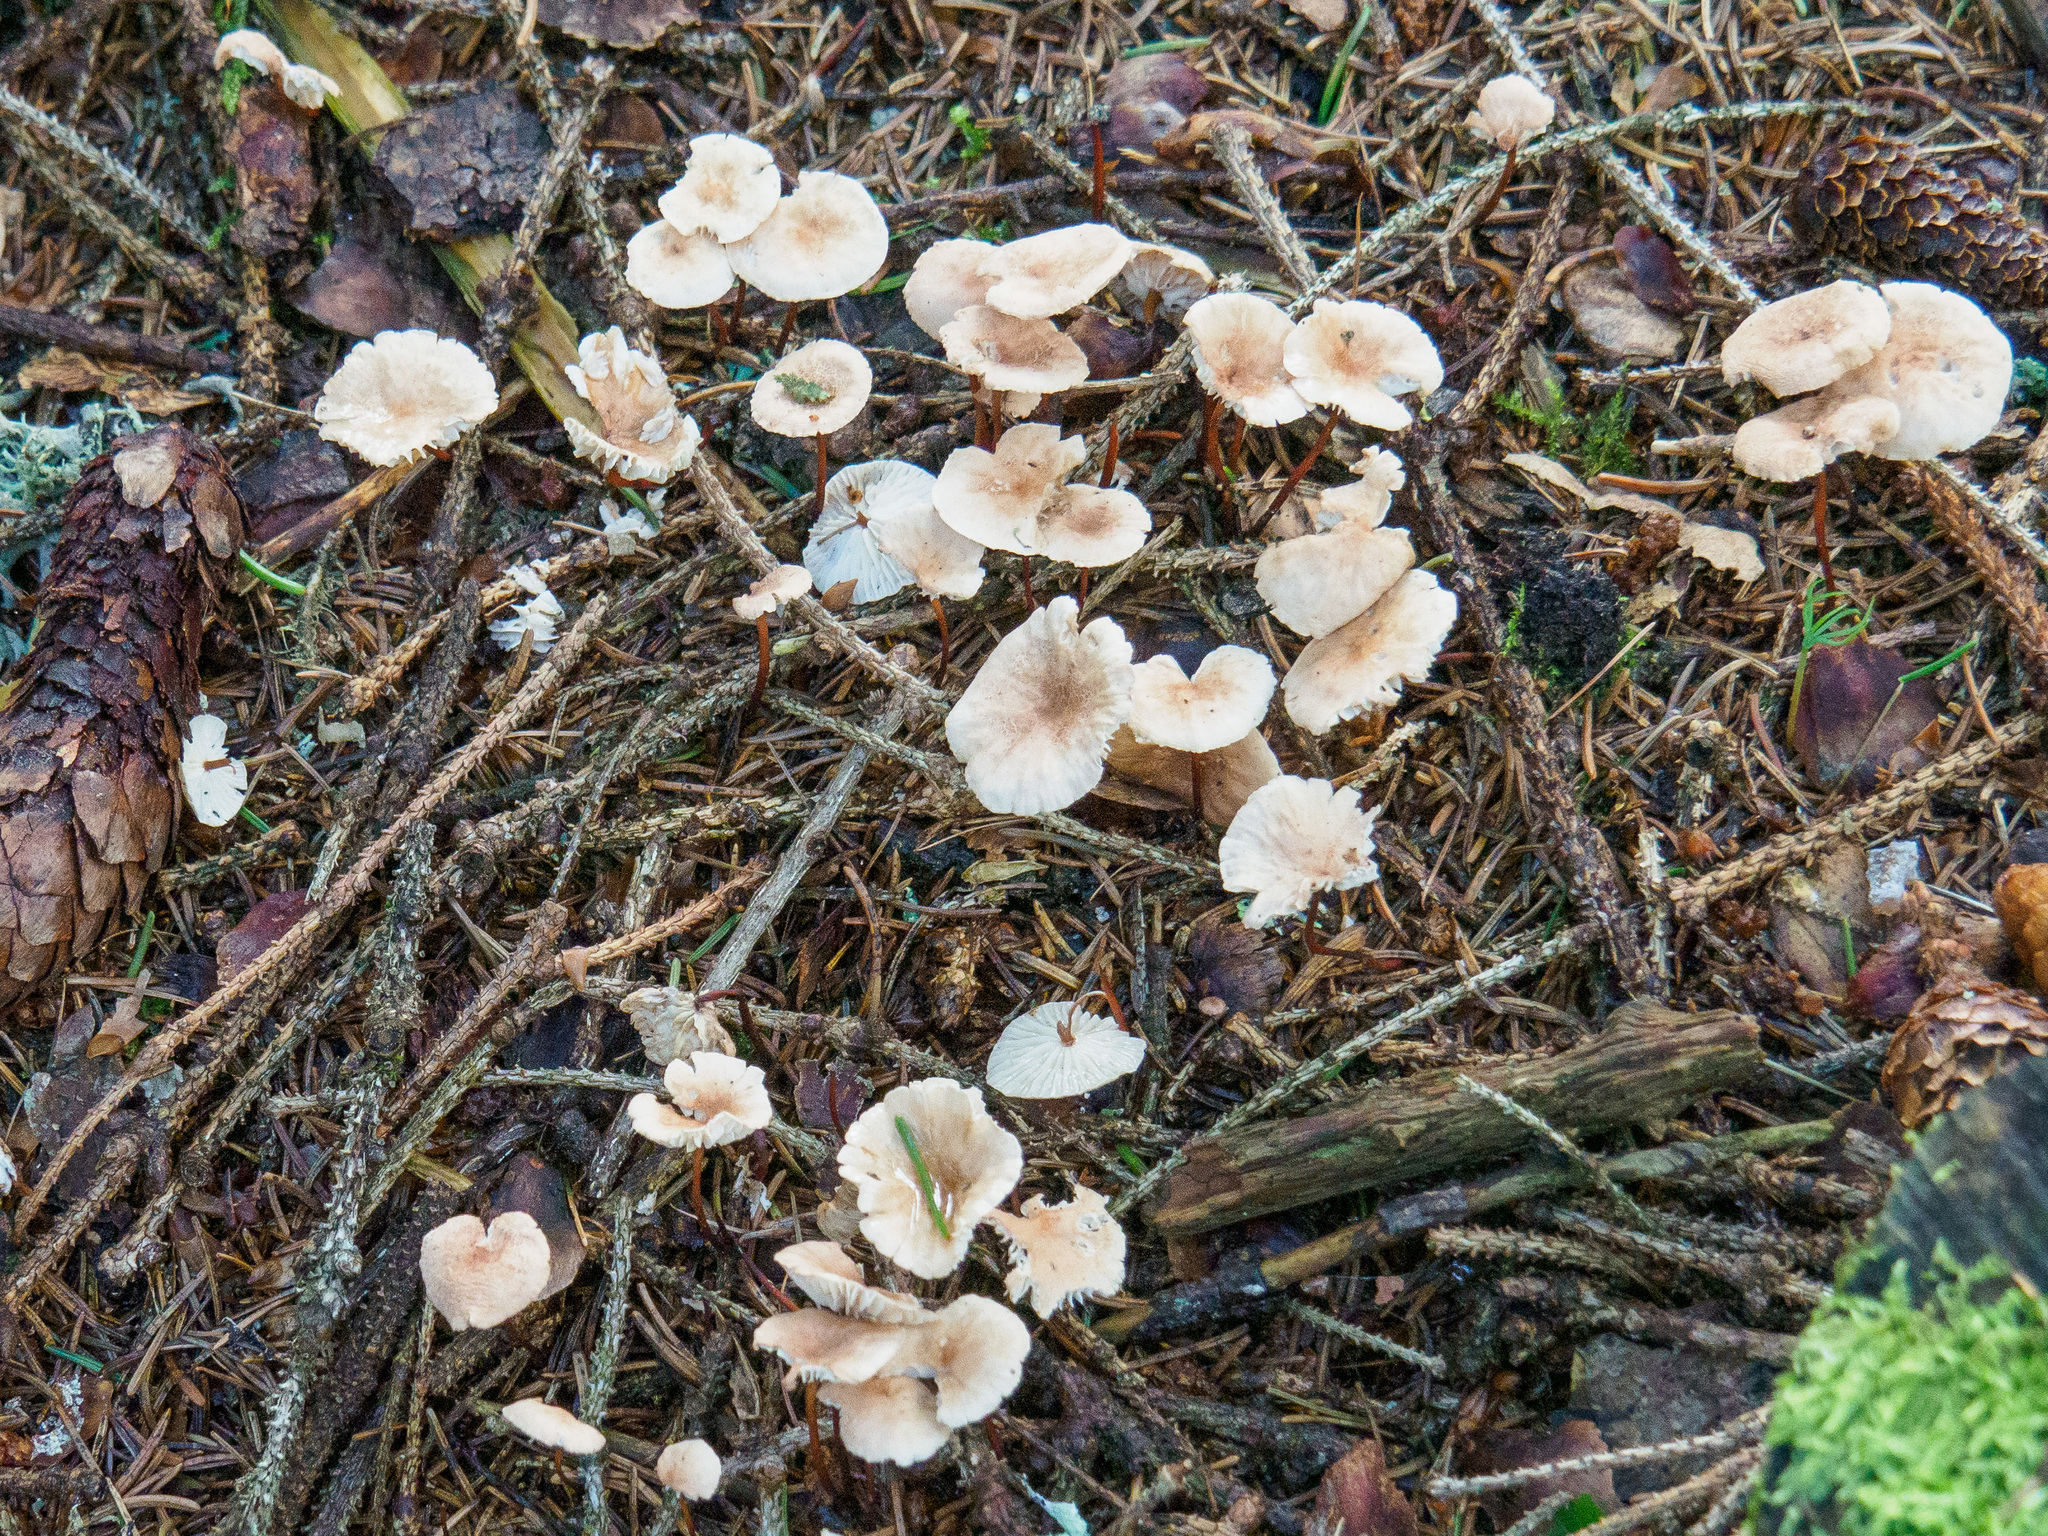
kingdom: Fungi
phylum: Basidiomycota
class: Agaricomycetes
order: Agaricales
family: Omphalotaceae
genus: Mycetinis
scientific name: Mycetinis scorodonius
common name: Vampires bane
